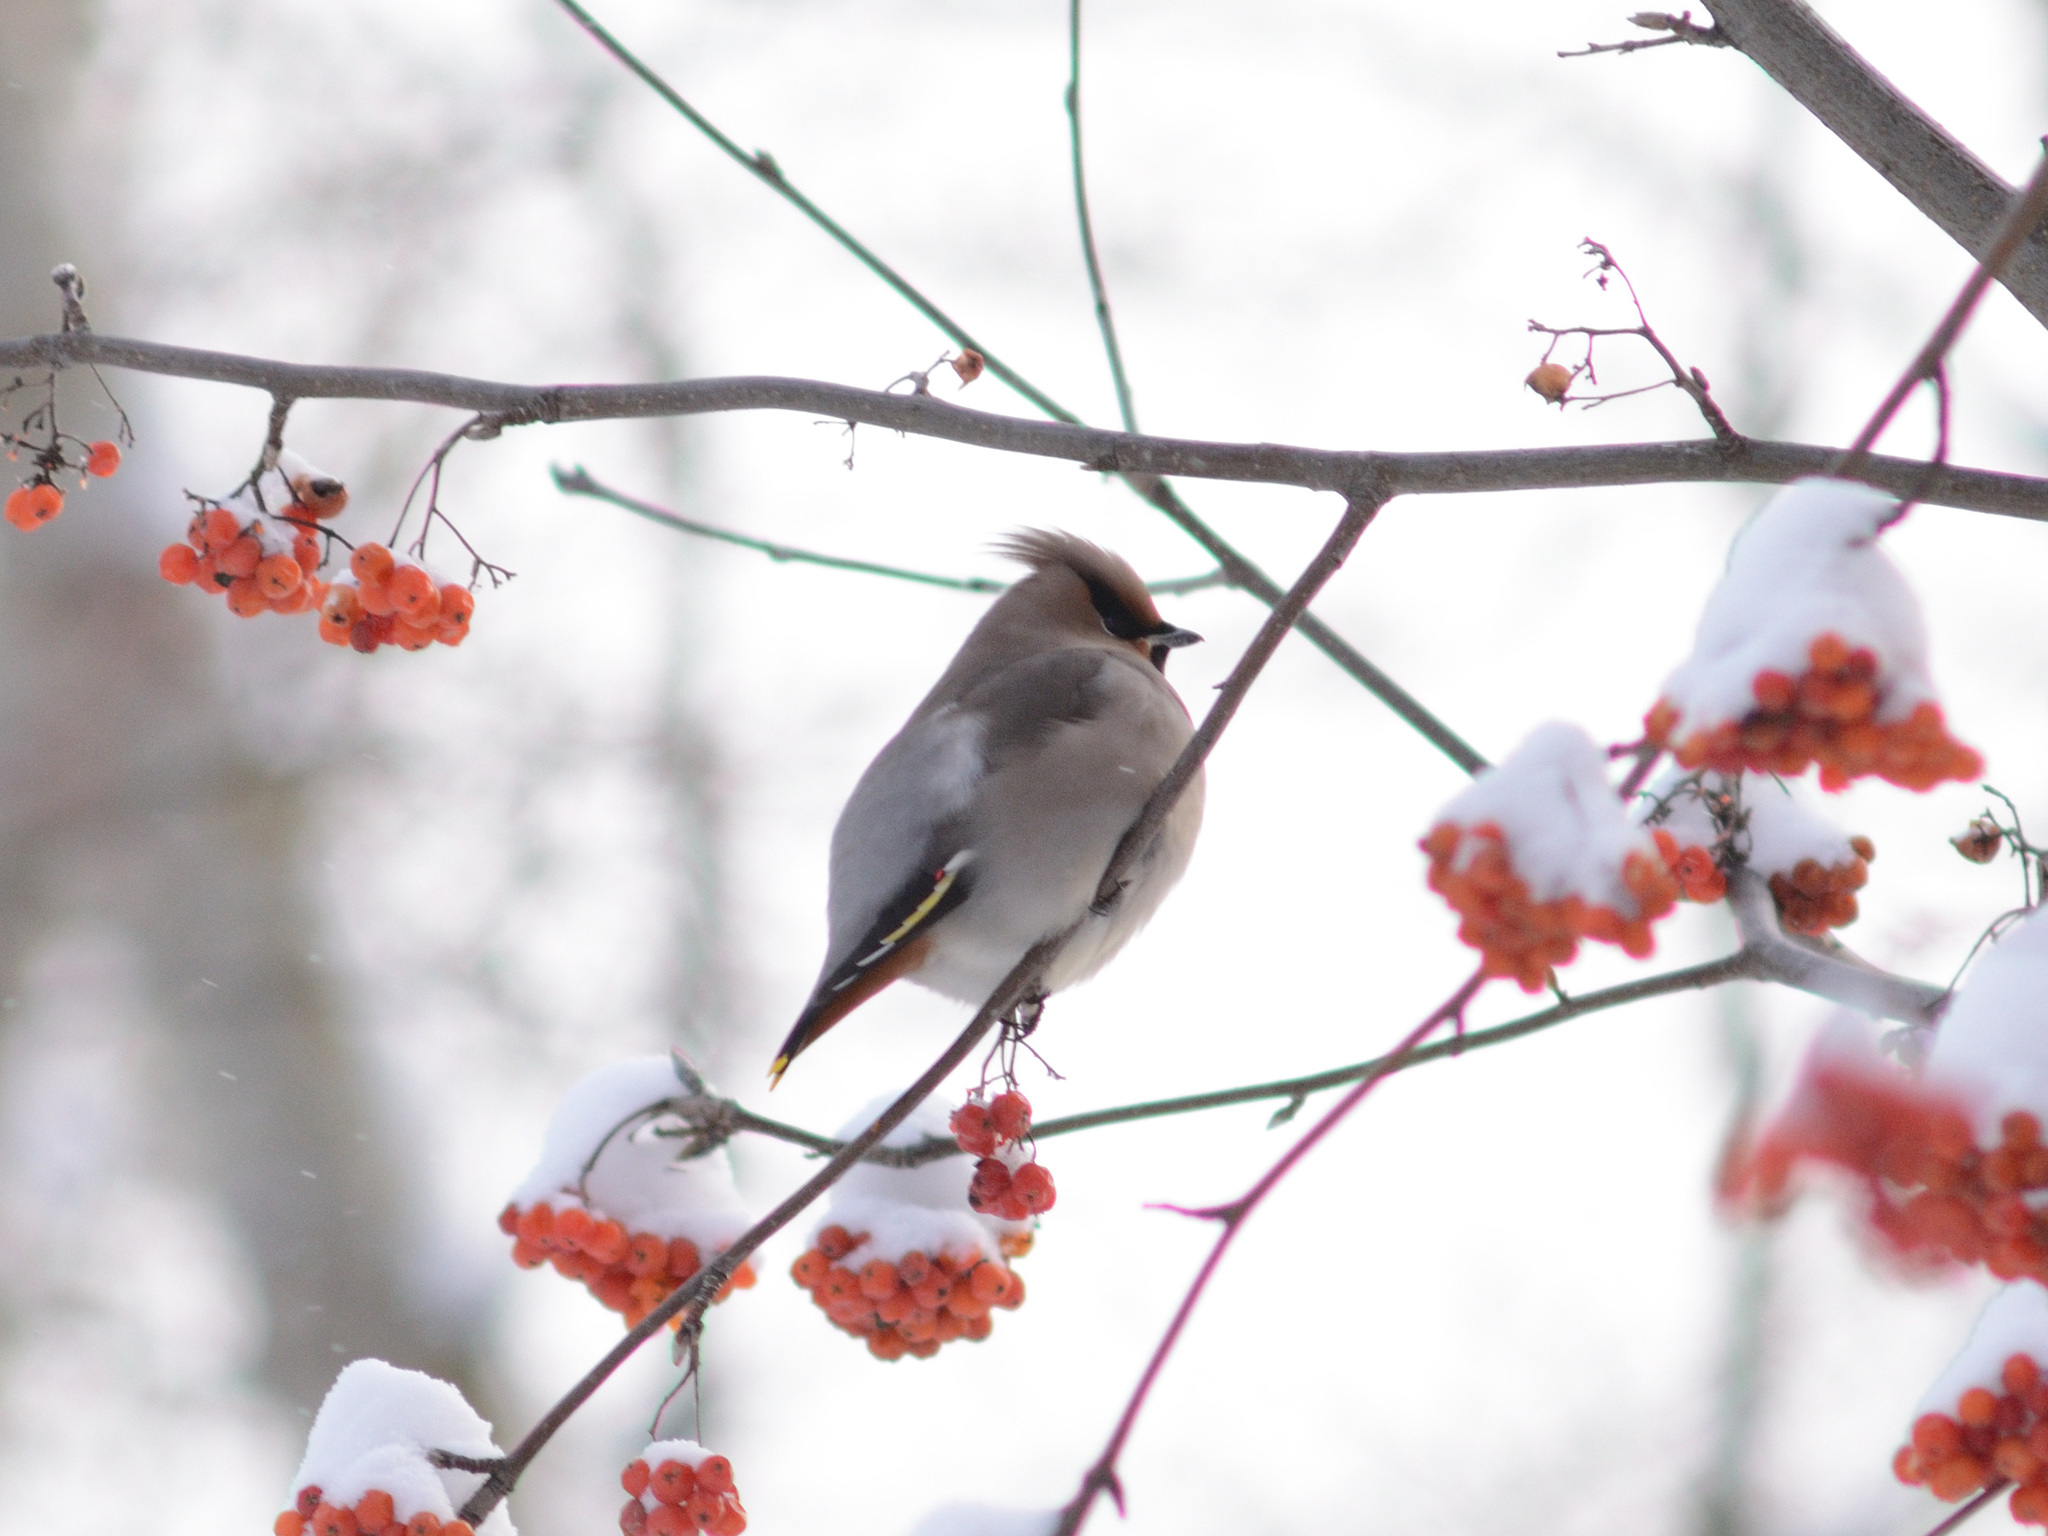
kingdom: Animalia
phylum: Chordata
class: Aves
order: Passeriformes
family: Bombycillidae
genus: Bombycilla
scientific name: Bombycilla garrulus
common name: Bohemian waxwing
